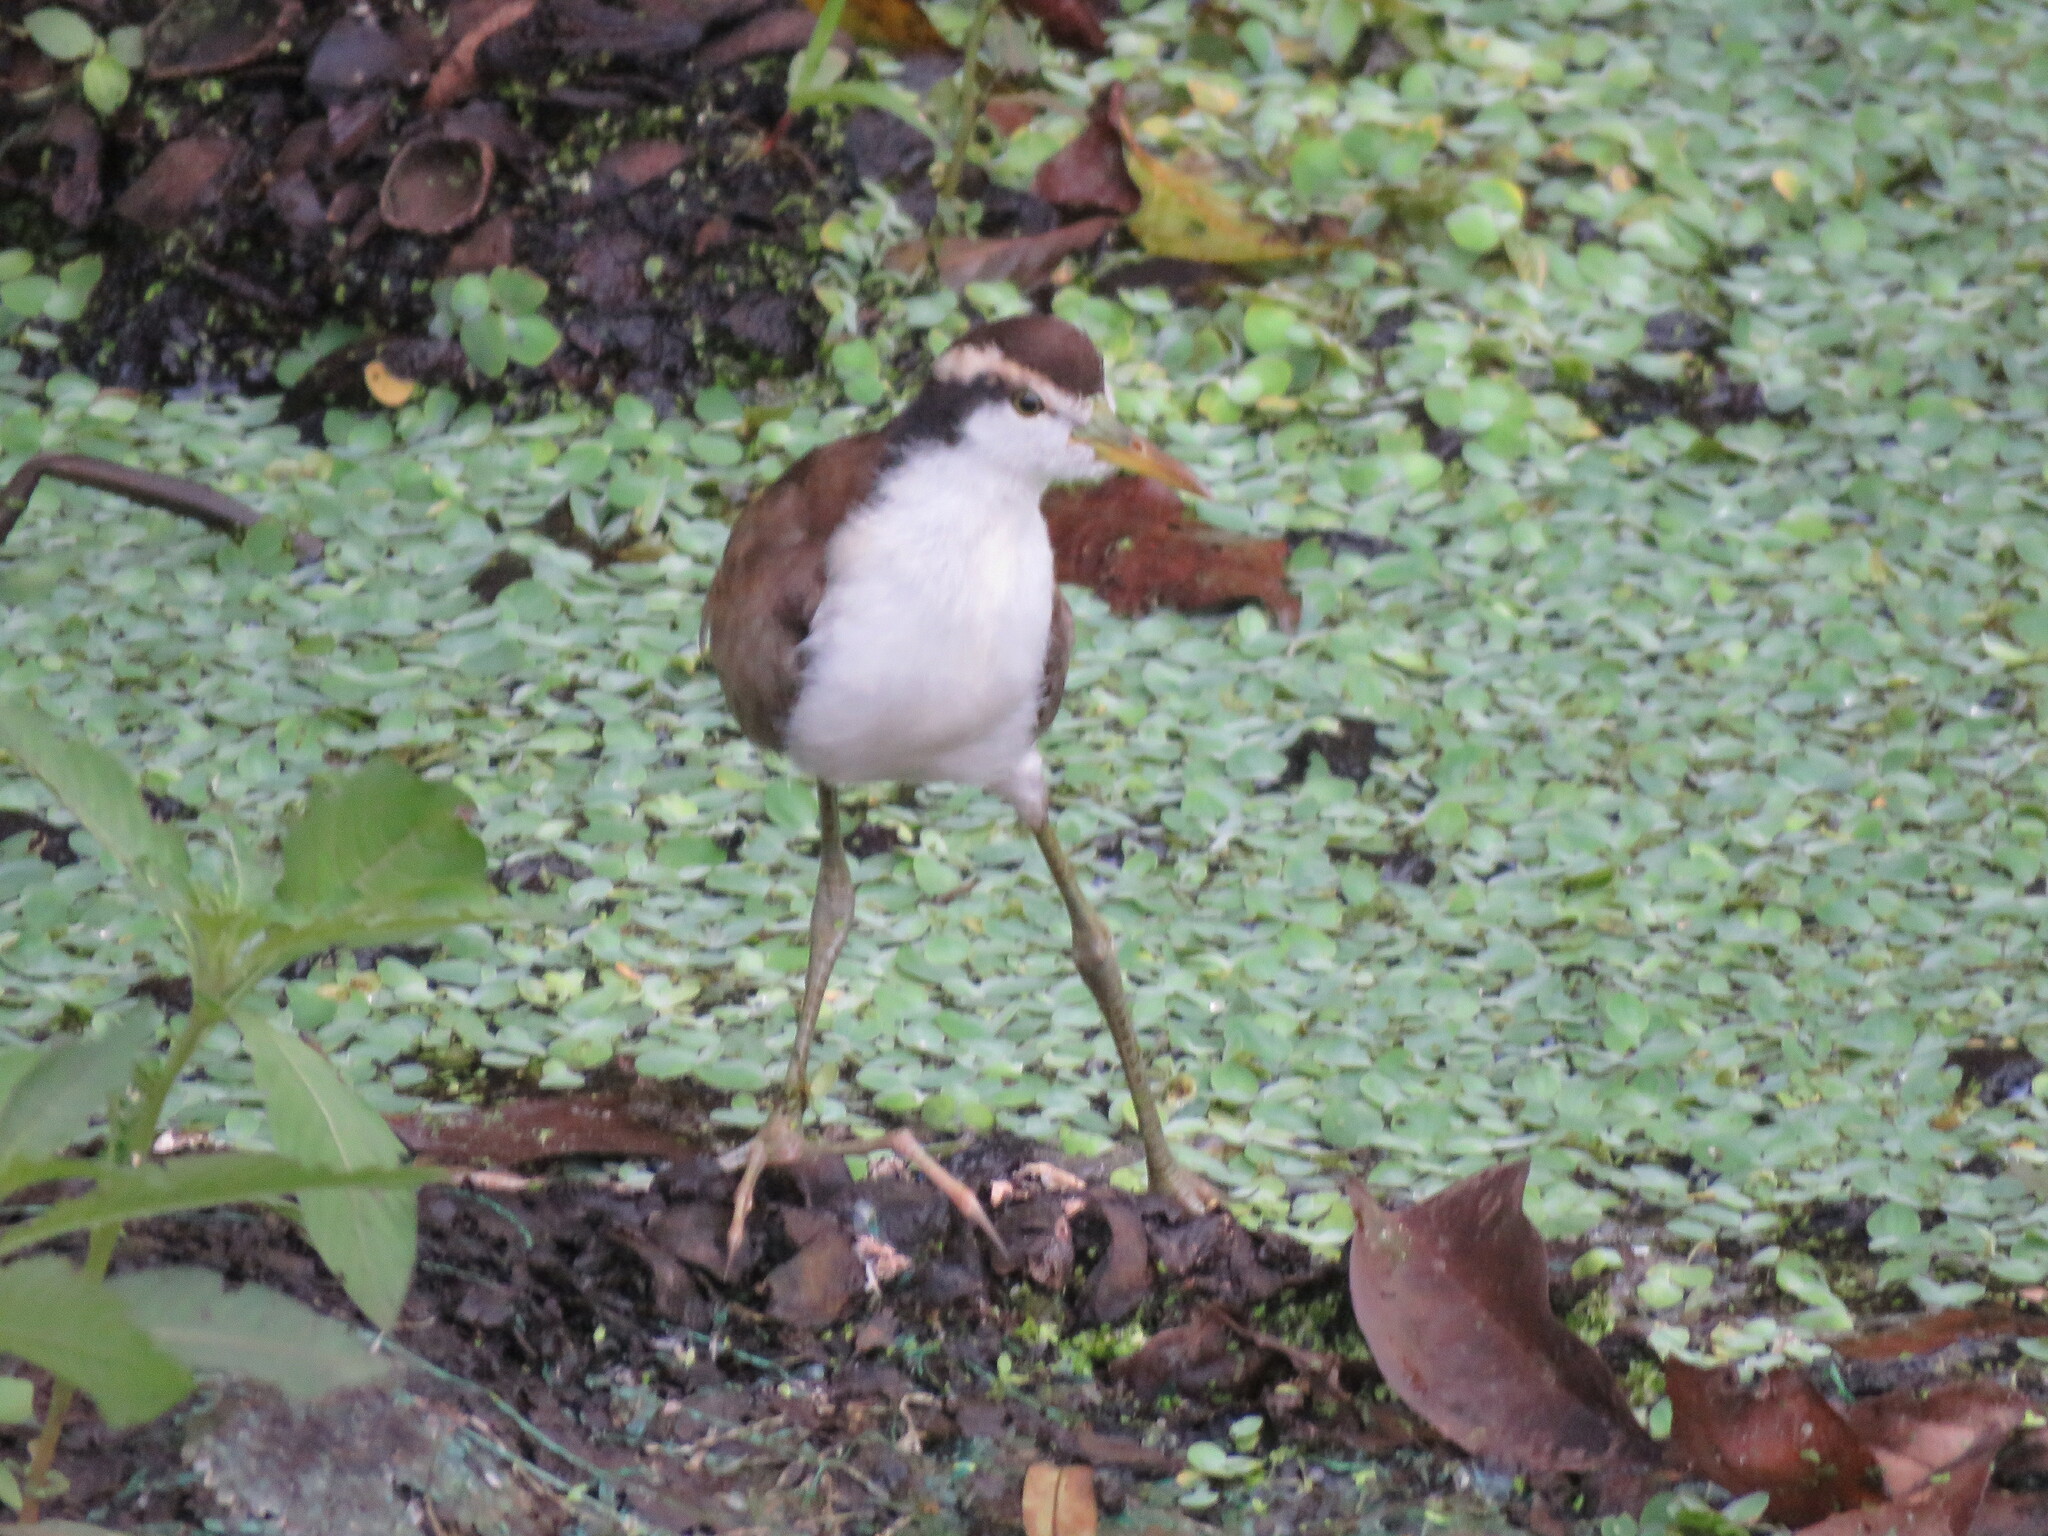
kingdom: Animalia
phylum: Chordata
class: Aves
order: Charadriiformes
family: Jacanidae
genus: Jacana
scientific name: Jacana jacana
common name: Wattled jacana
